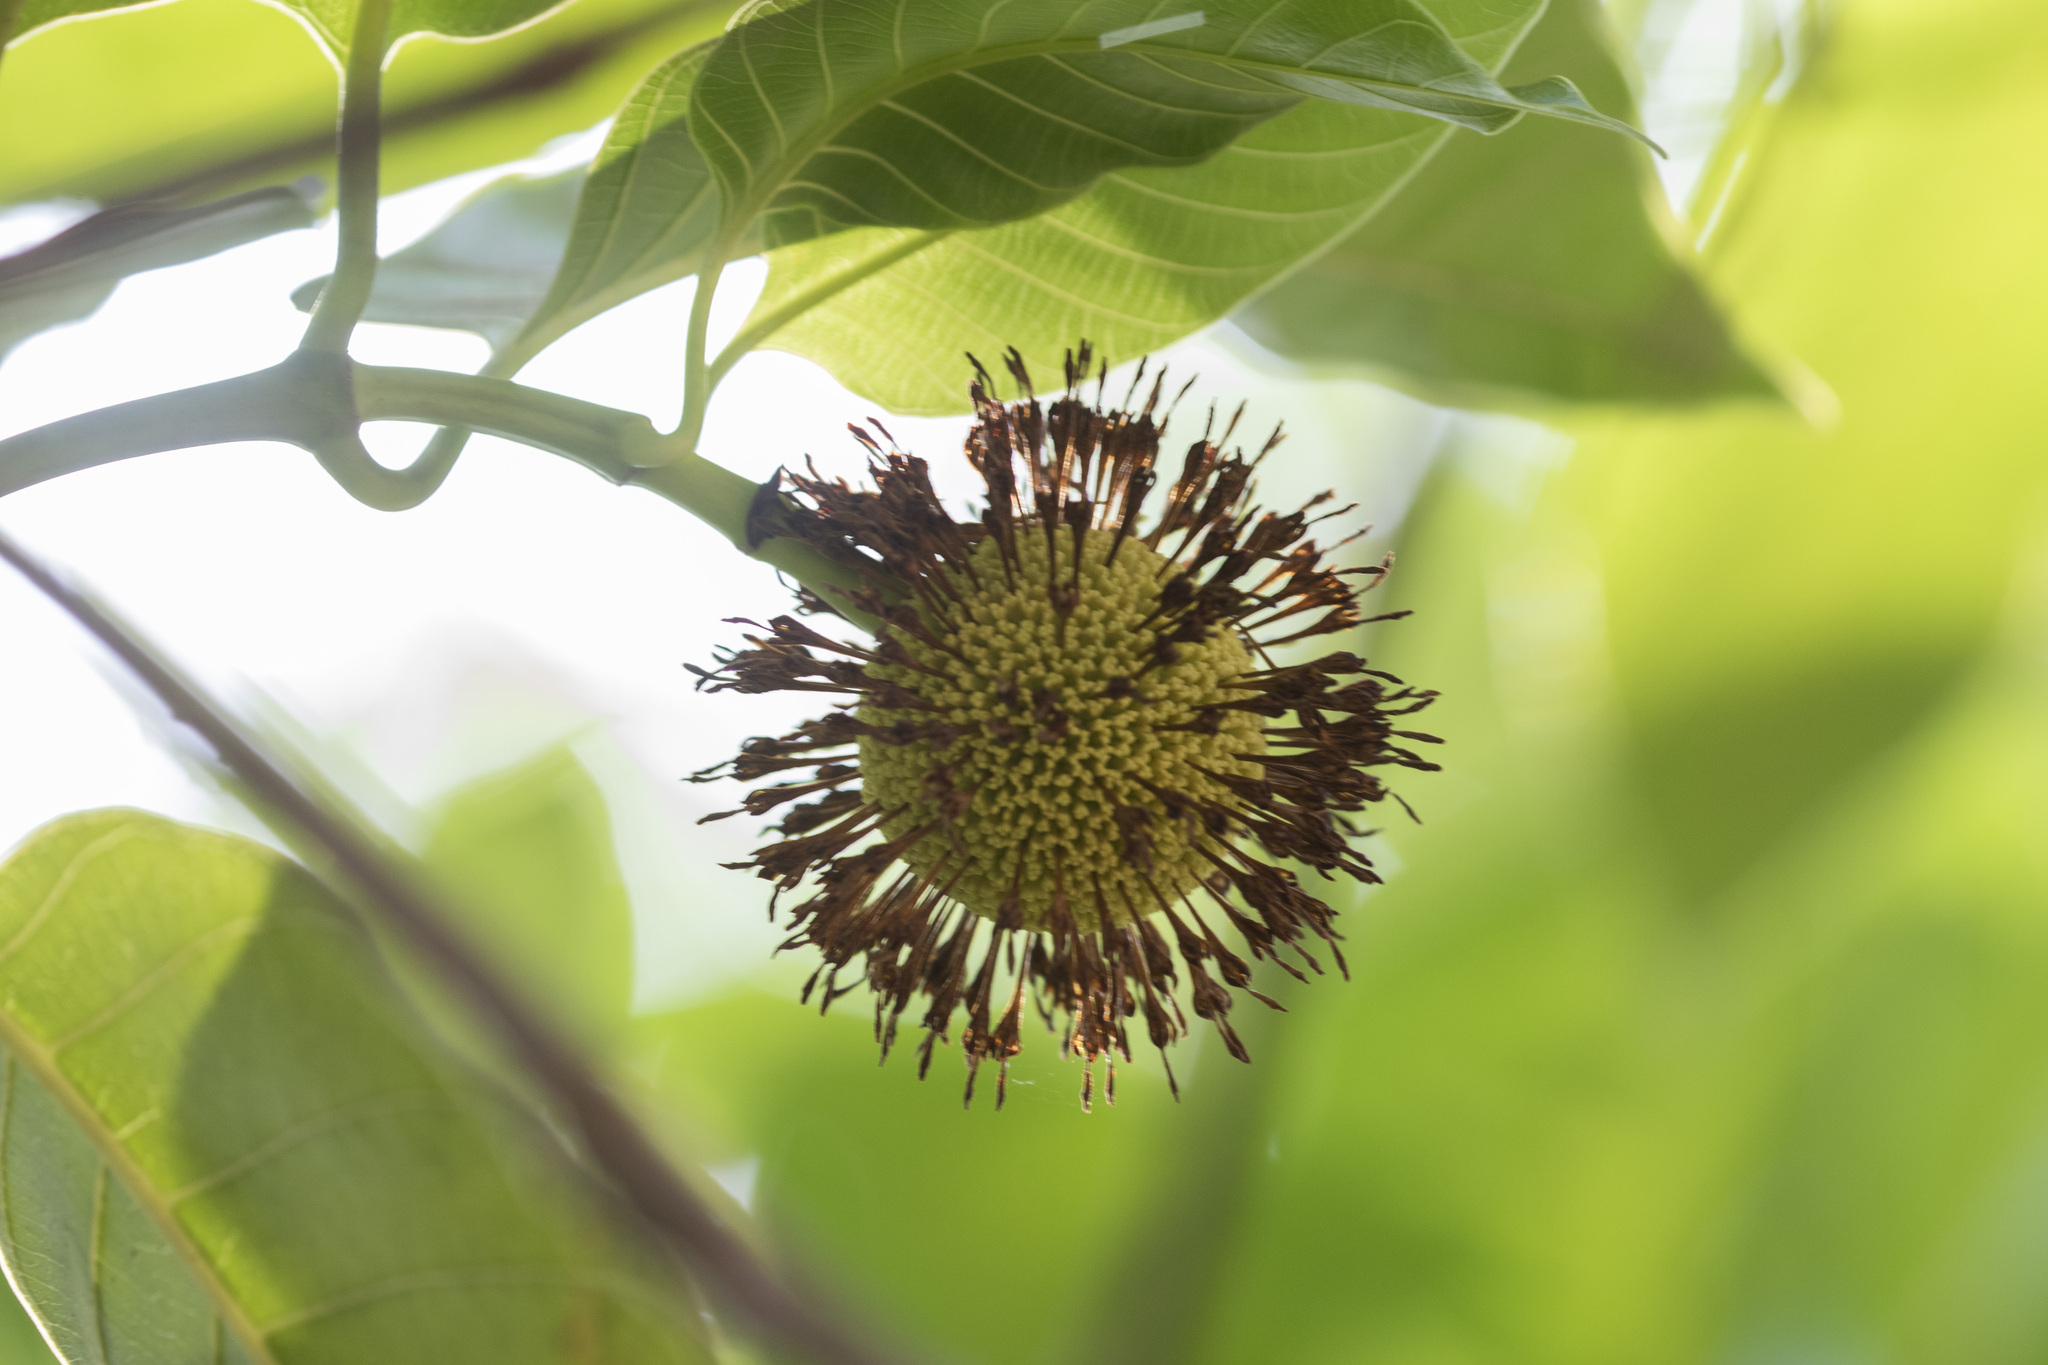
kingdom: Plantae
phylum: Tracheophyta
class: Magnoliopsida
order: Gentianales
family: Rubiaceae
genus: Neolamarckia
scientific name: Neolamarckia cadamba
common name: Leichhardt-pine
